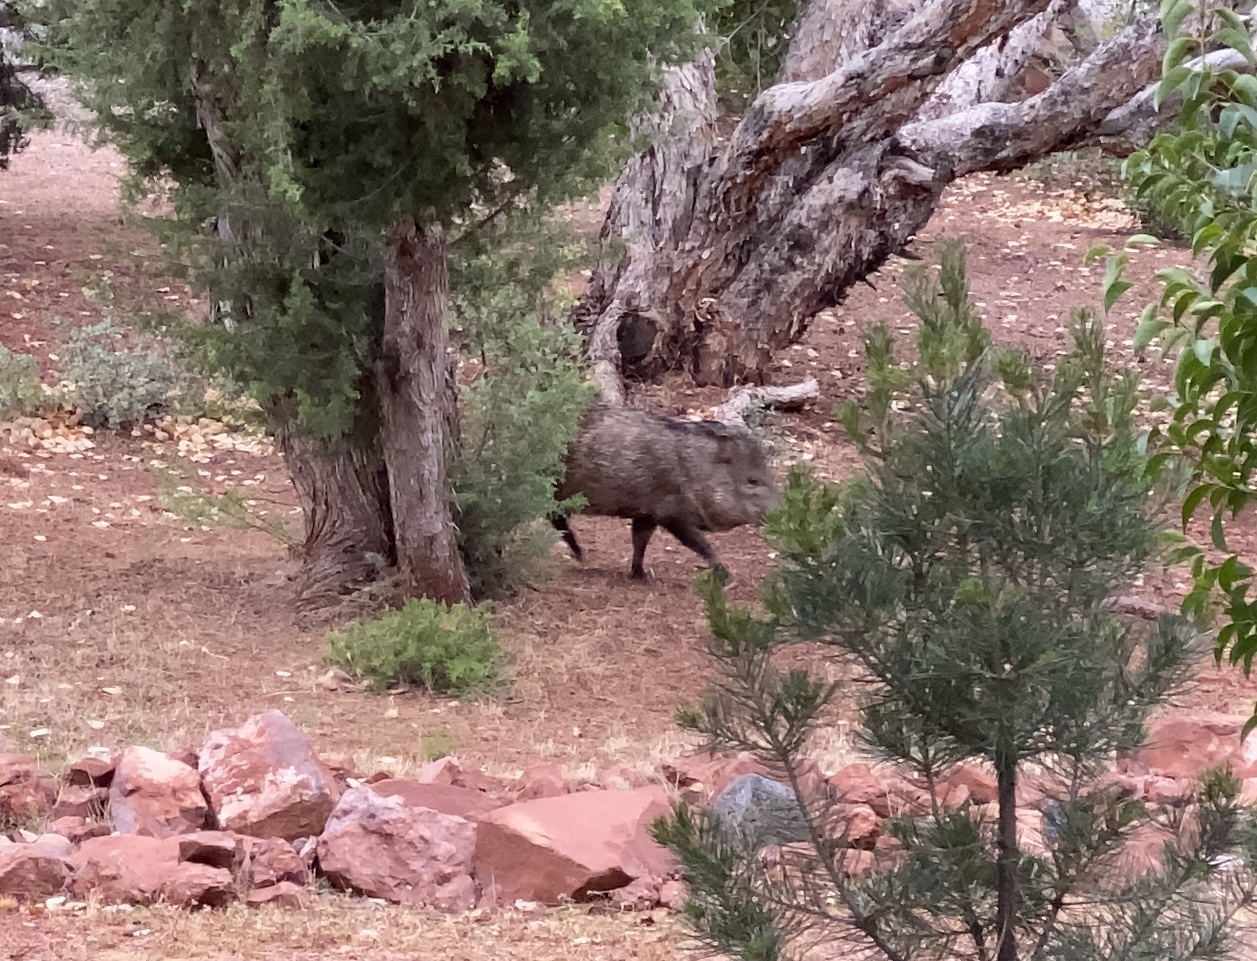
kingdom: Animalia
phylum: Chordata
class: Mammalia
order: Artiodactyla
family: Tayassuidae
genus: Pecari
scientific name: Pecari tajacu
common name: Collared peccary
